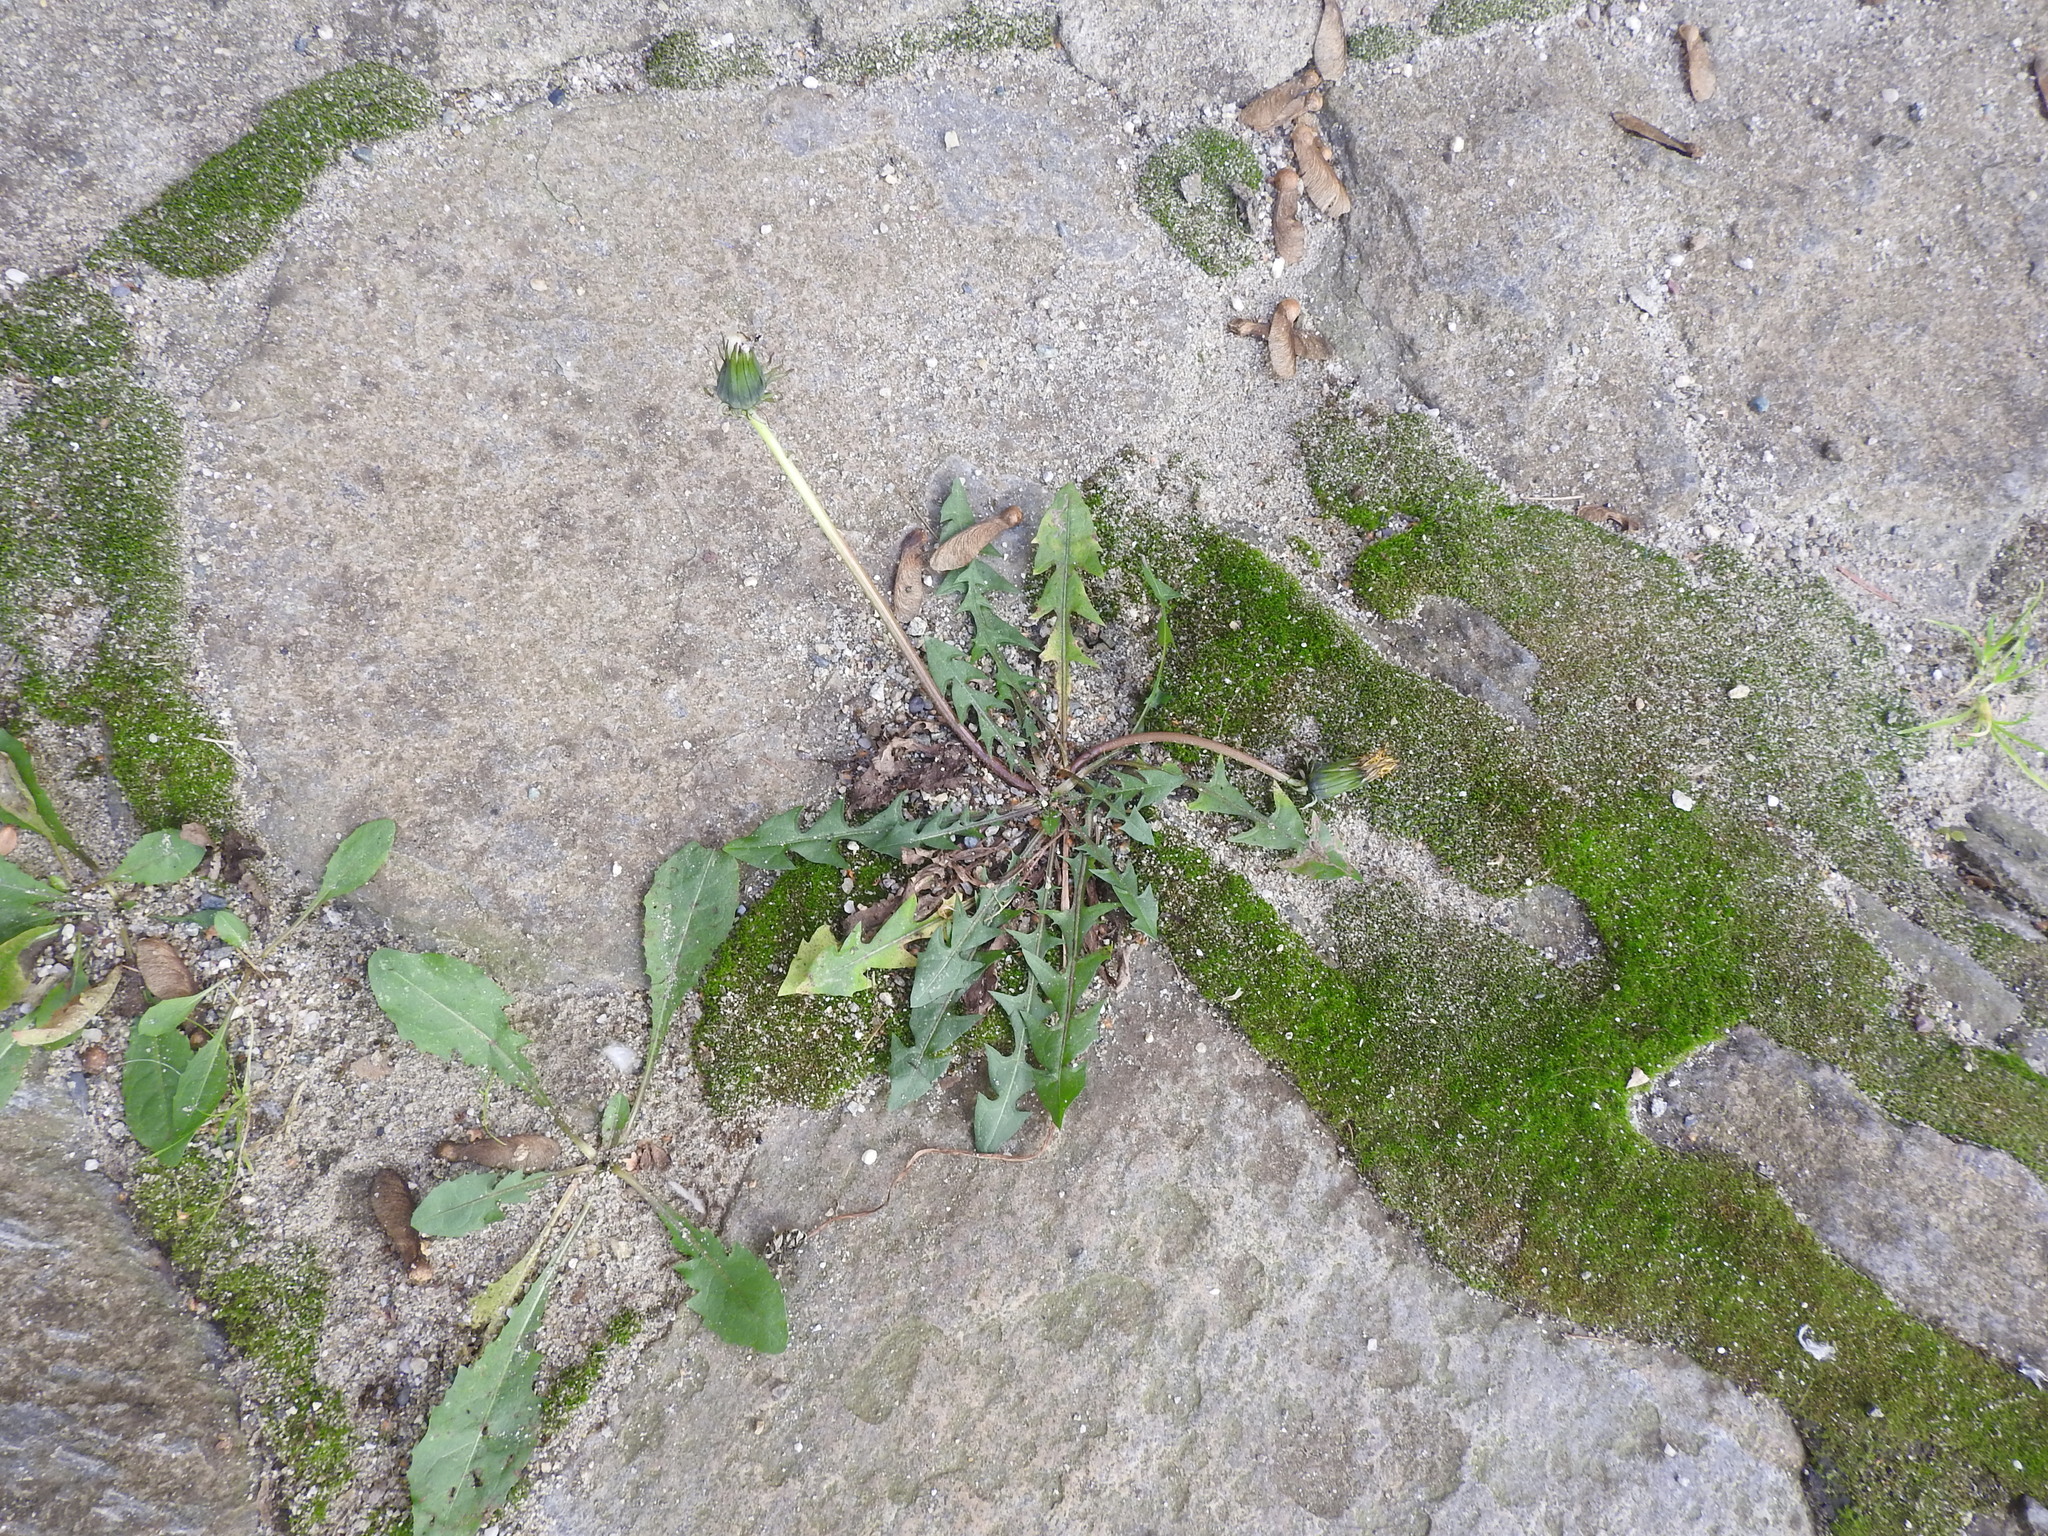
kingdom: Plantae
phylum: Tracheophyta
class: Magnoliopsida
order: Asterales
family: Asteraceae
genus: Taraxacum
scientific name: Taraxacum officinale
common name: Common dandelion
